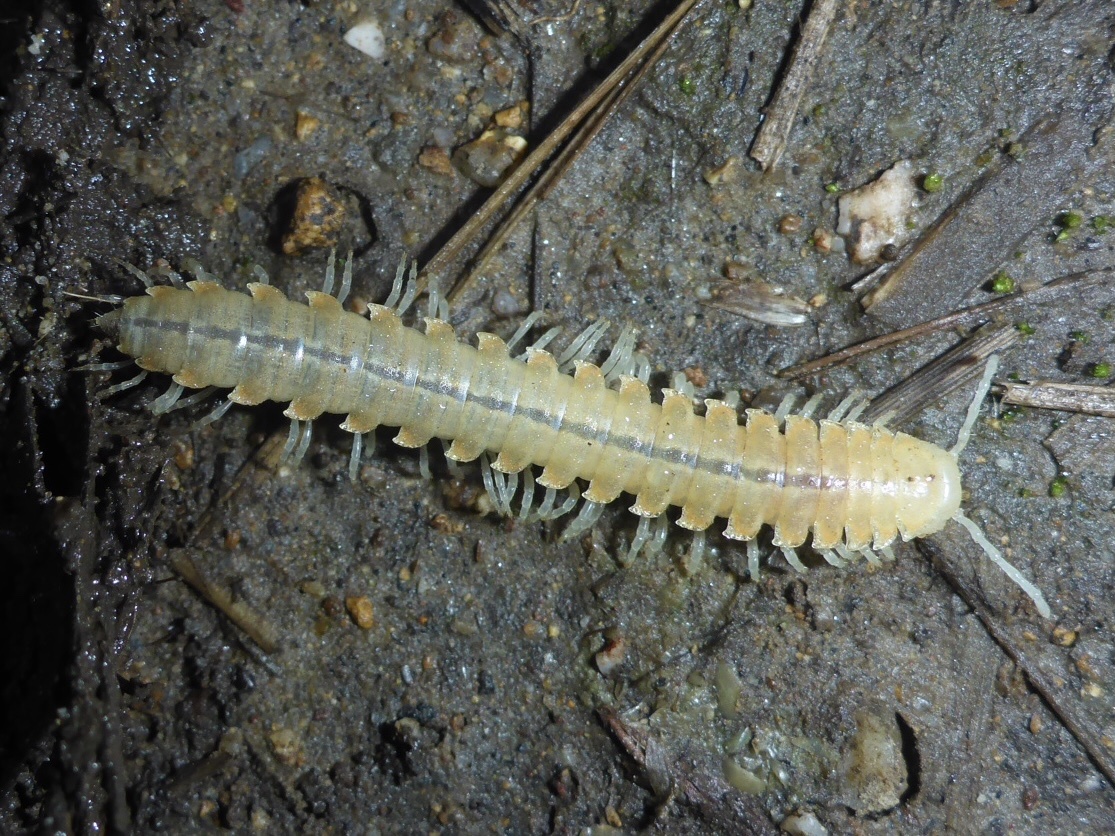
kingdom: Animalia
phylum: Arthropoda
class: Diplopoda
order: Polydesmida
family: Xystodesmidae
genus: Xystocheir
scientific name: Xystocheir dissecta
